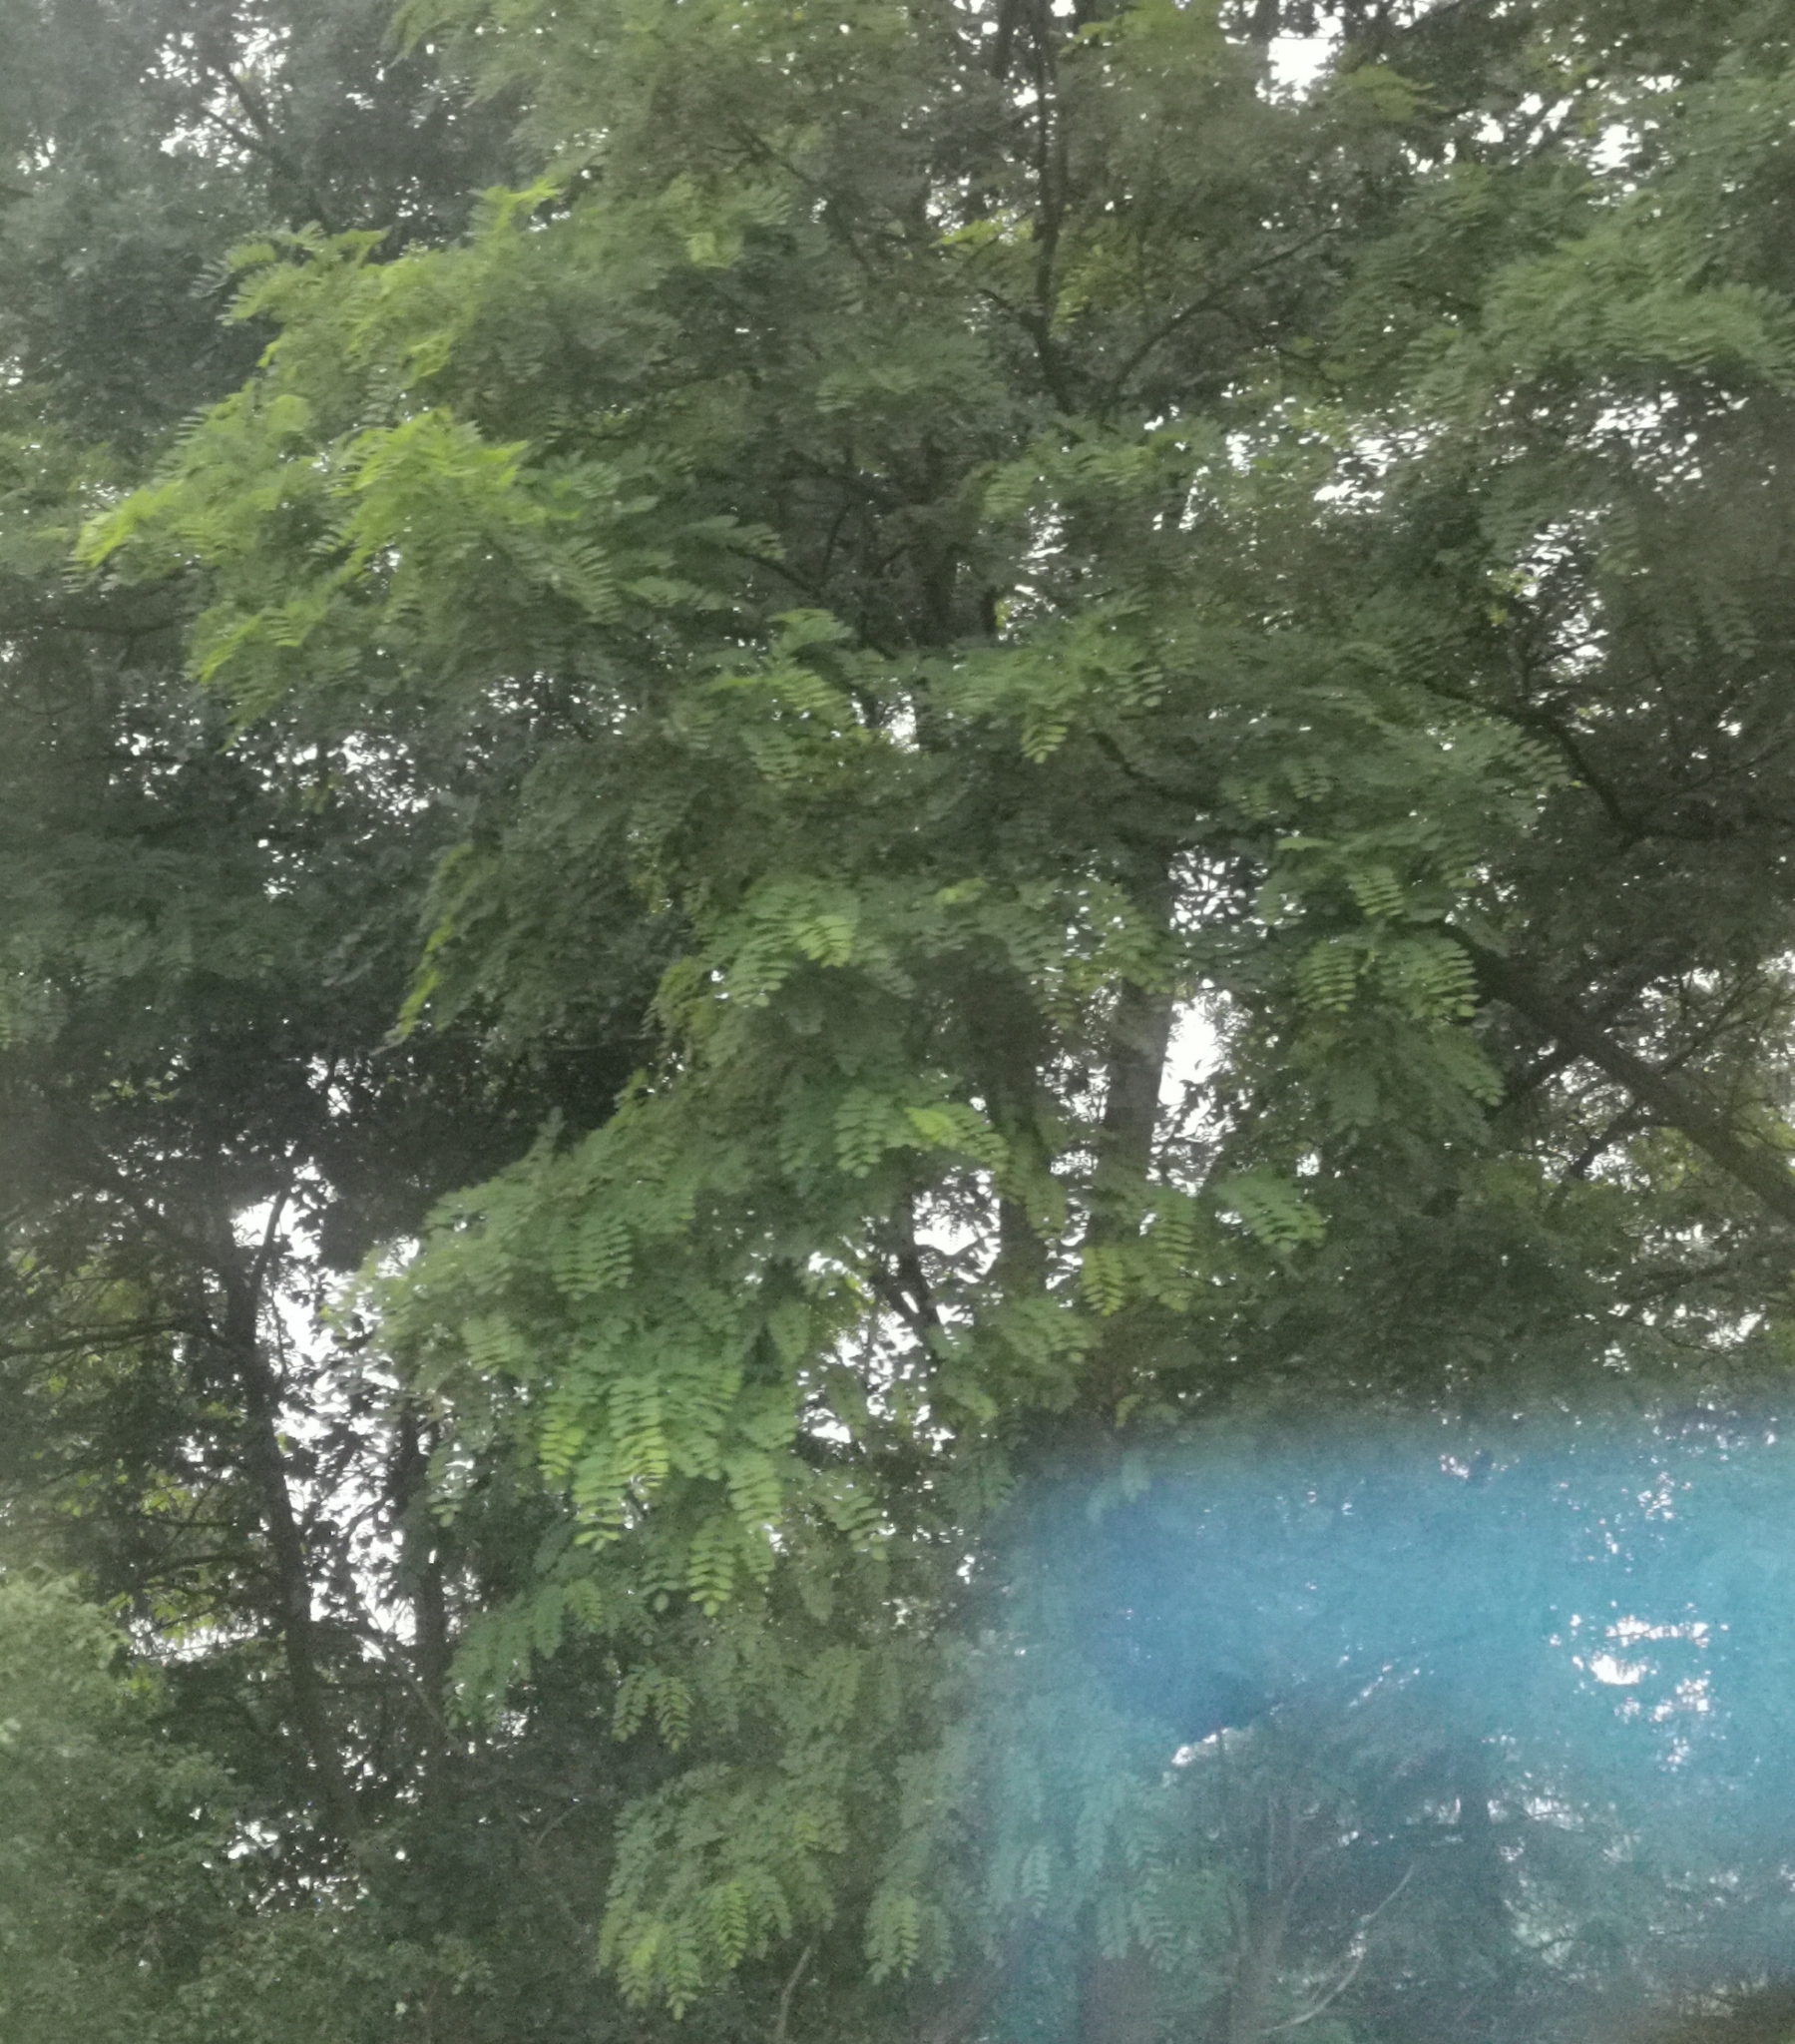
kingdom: Plantae
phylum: Tracheophyta
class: Magnoliopsida
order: Fabales
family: Fabaceae
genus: Robinia
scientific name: Robinia pseudoacacia
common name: Black locust
